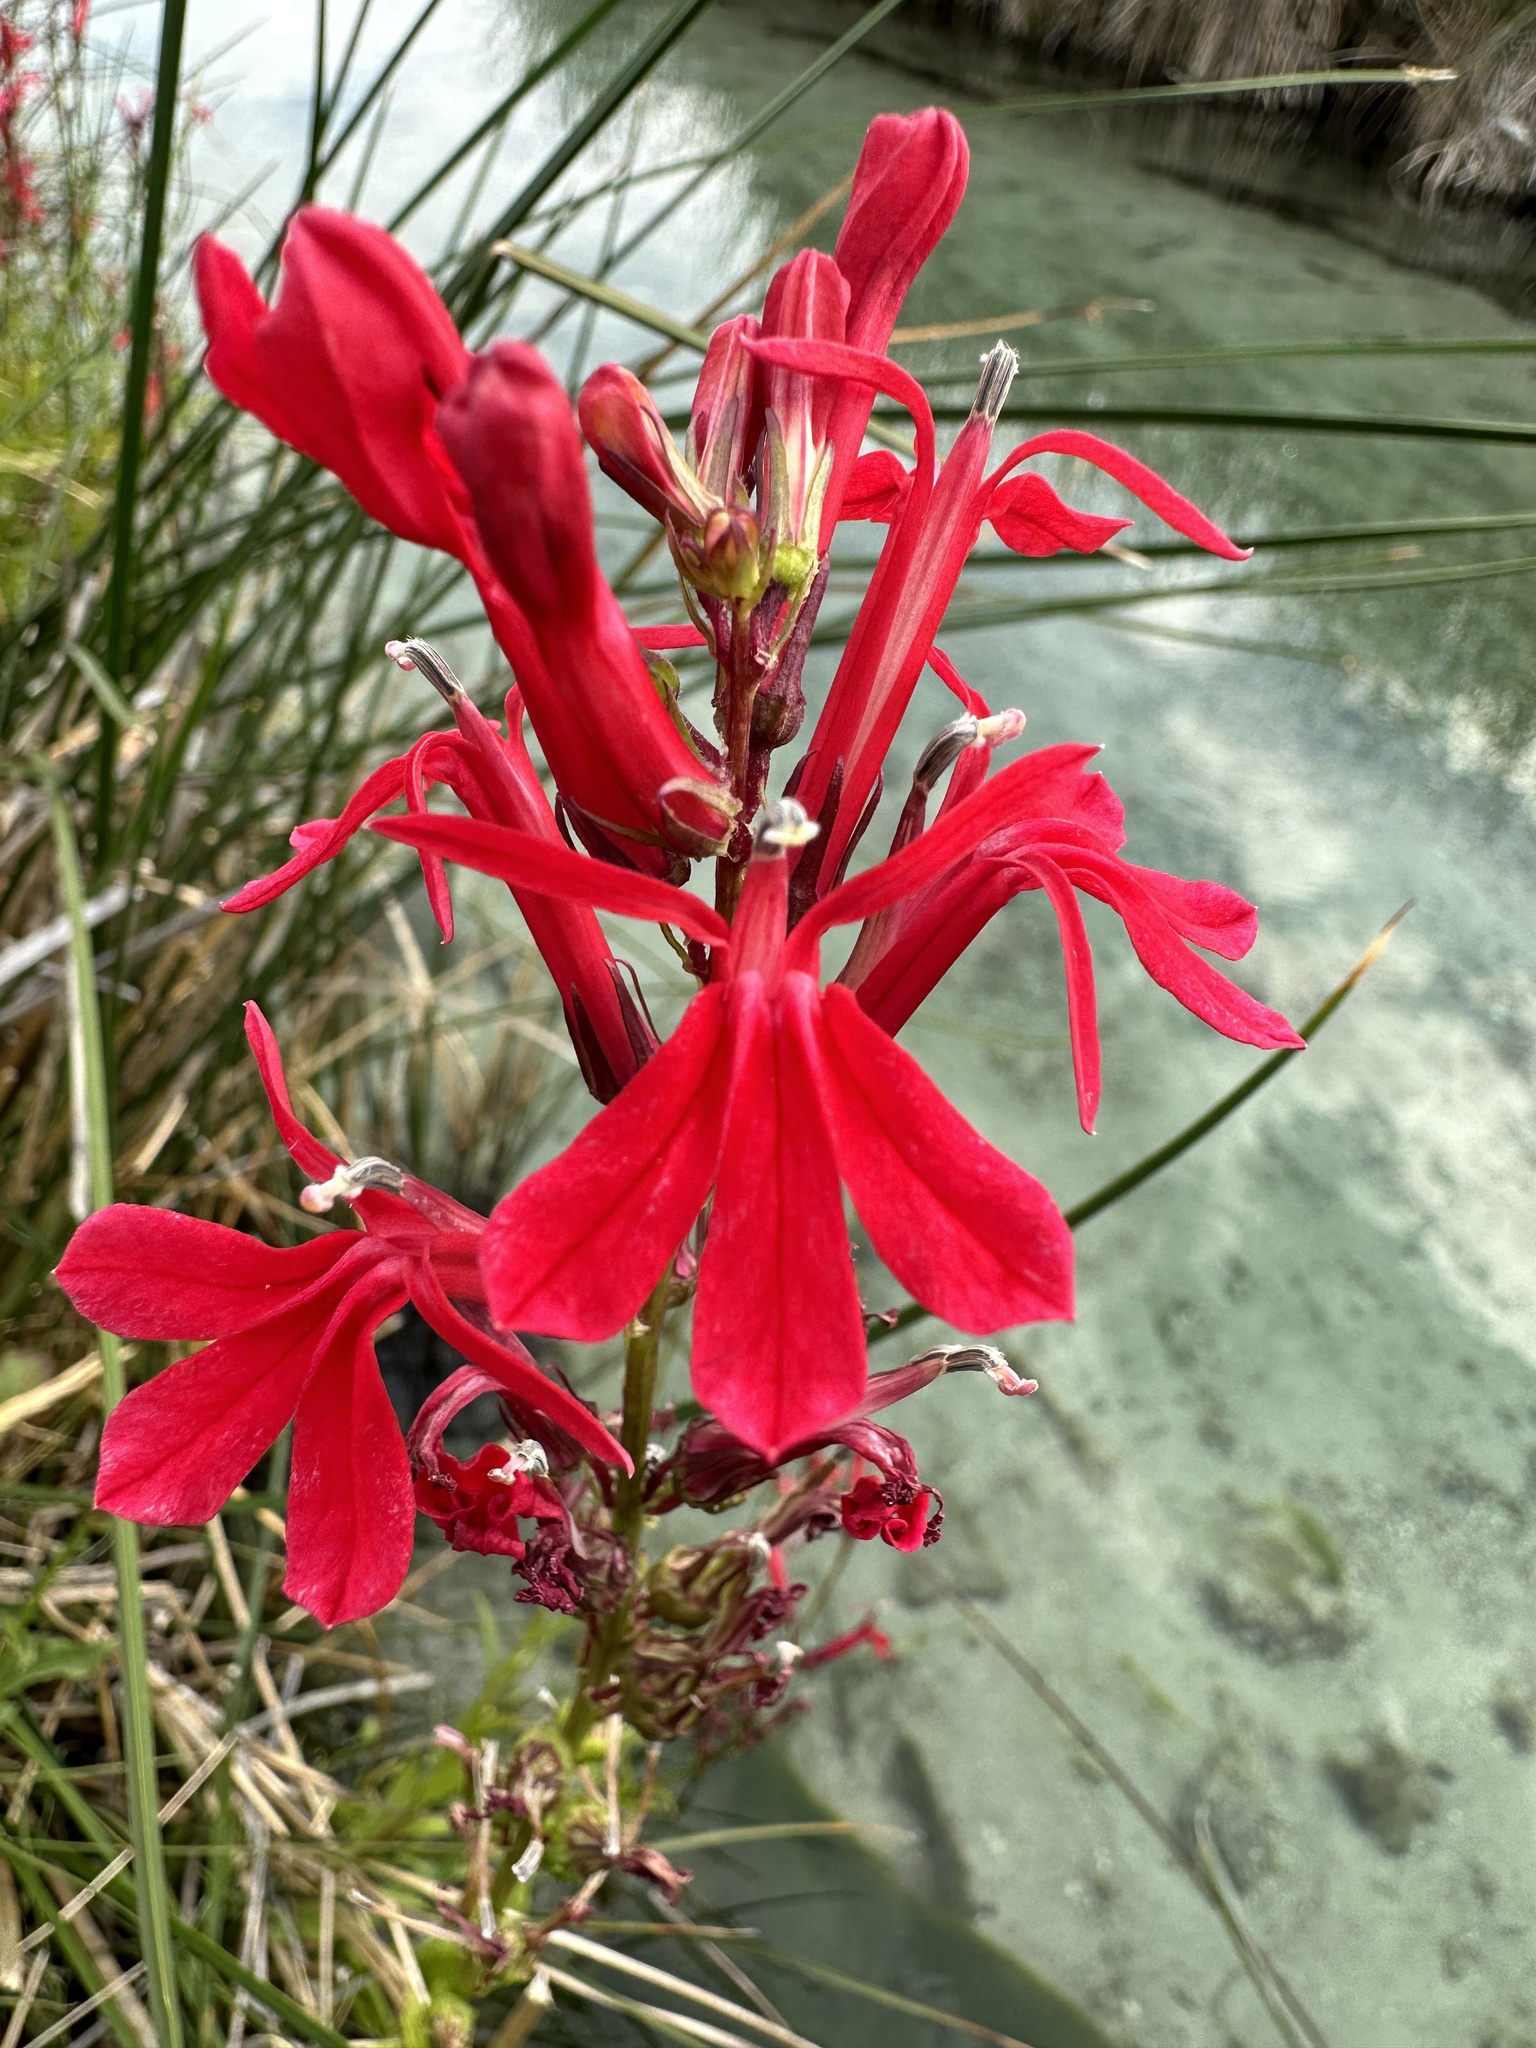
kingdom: Plantae
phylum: Tracheophyta
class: Magnoliopsida
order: Asterales
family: Campanulaceae
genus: Lobelia
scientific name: Lobelia cardinalis
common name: Cardinal flower
